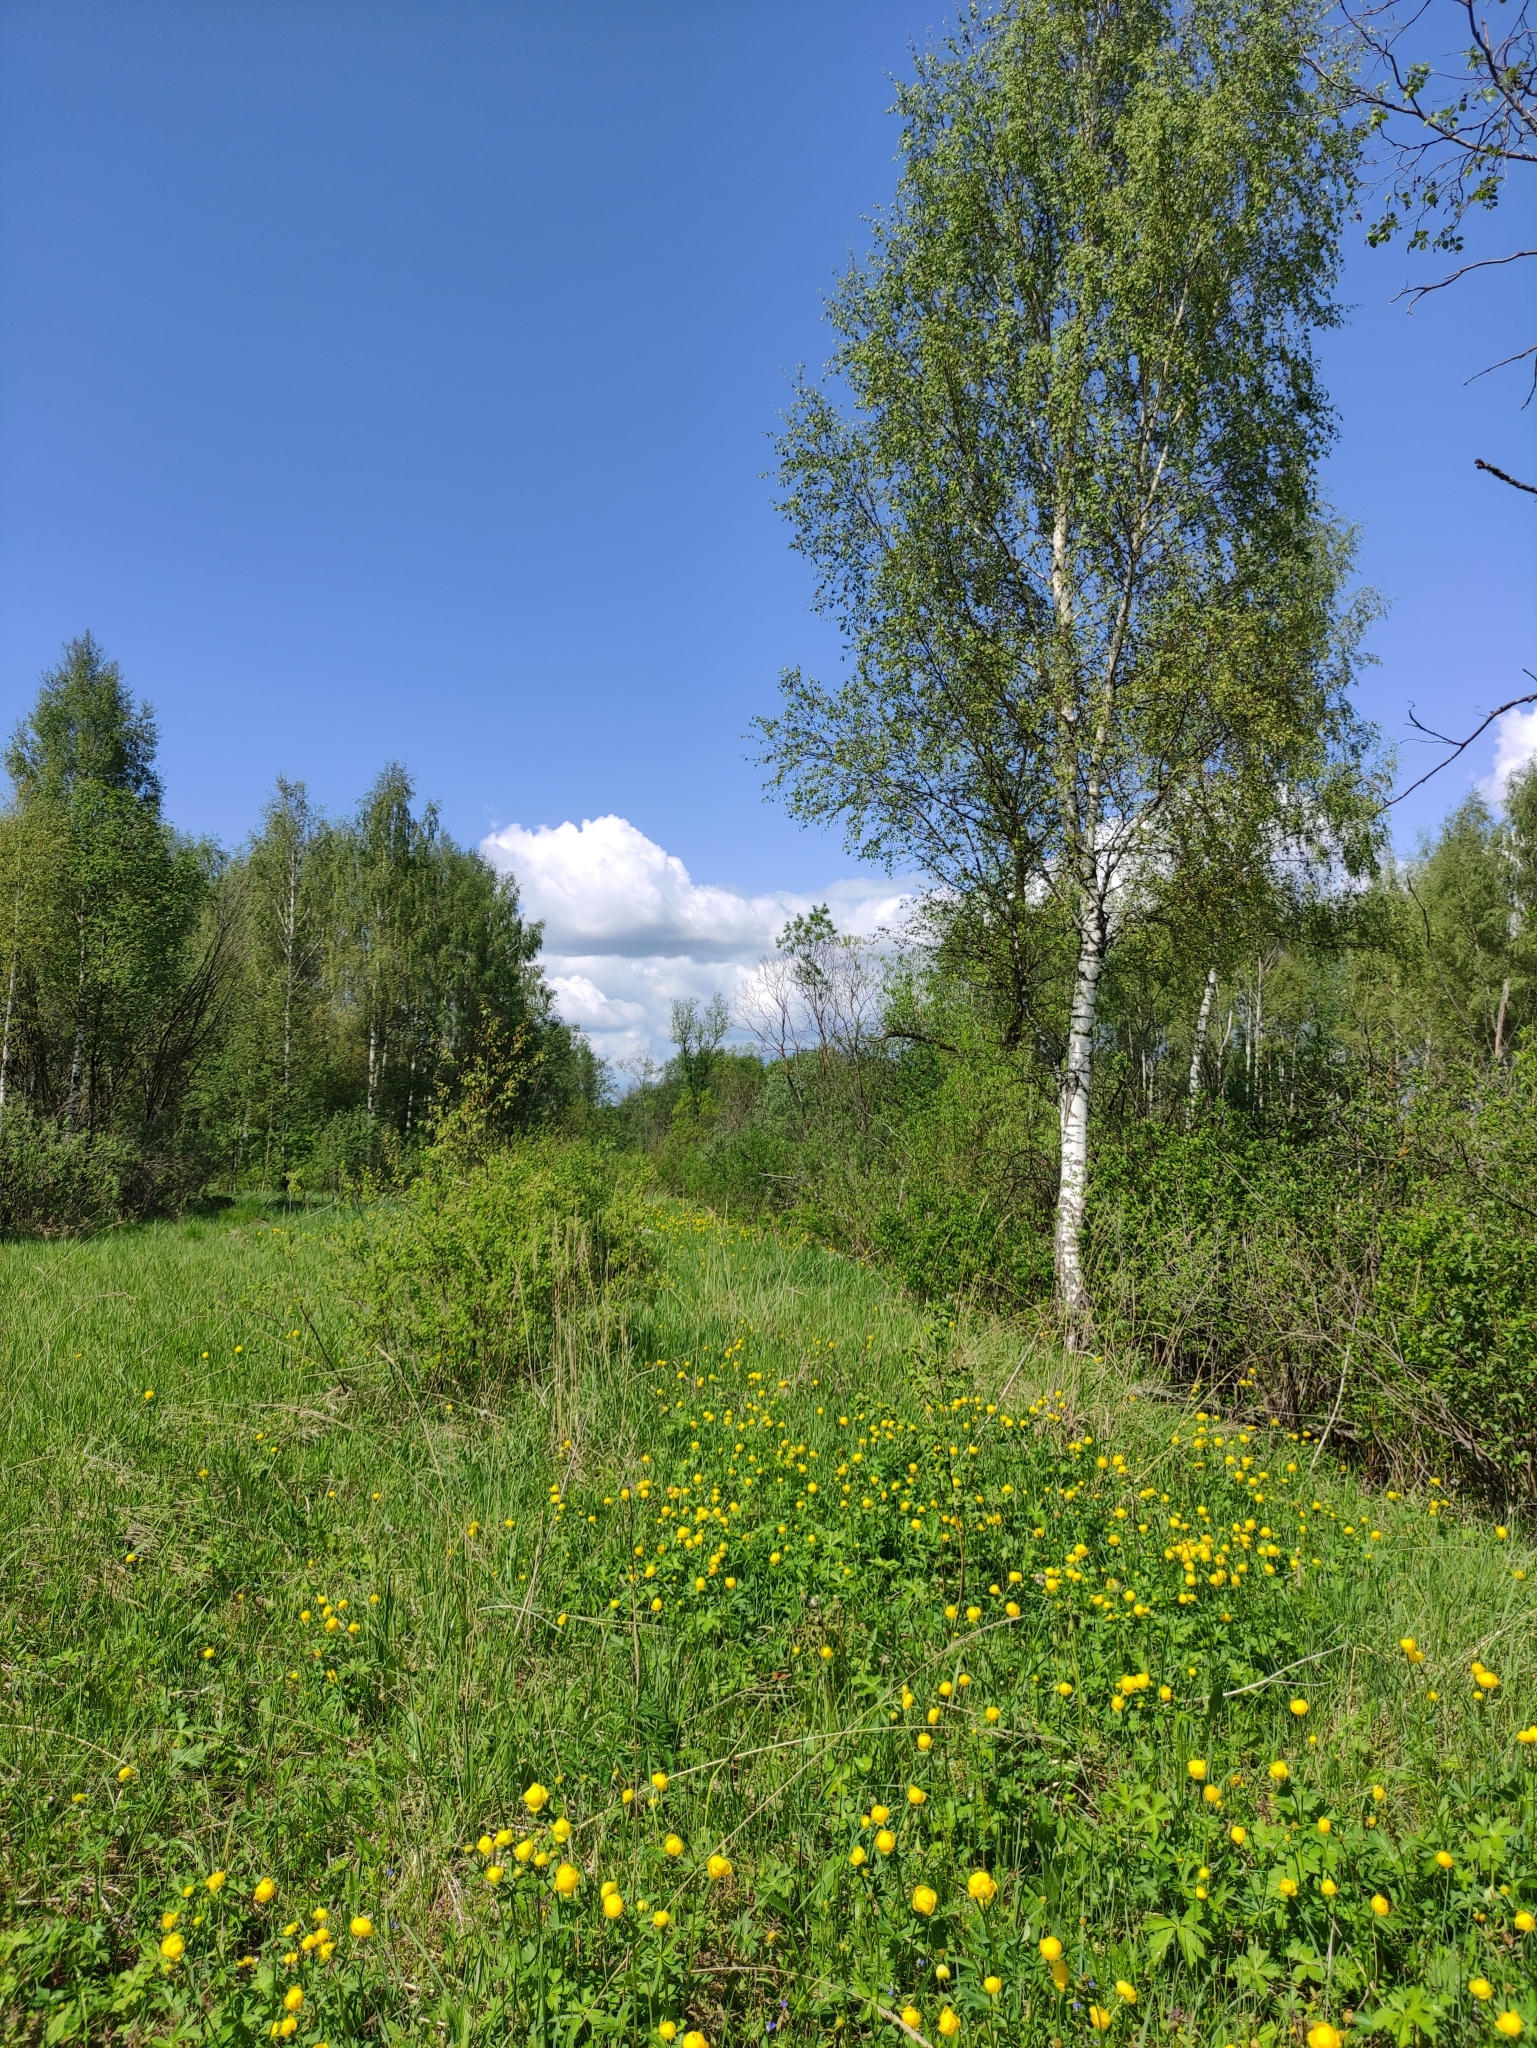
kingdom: Plantae
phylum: Tracheophyta
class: Magnoliopsida
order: Ranunculales
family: Ranunculaceae
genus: Trollius
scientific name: Trollius europaeus
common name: European globeflower
